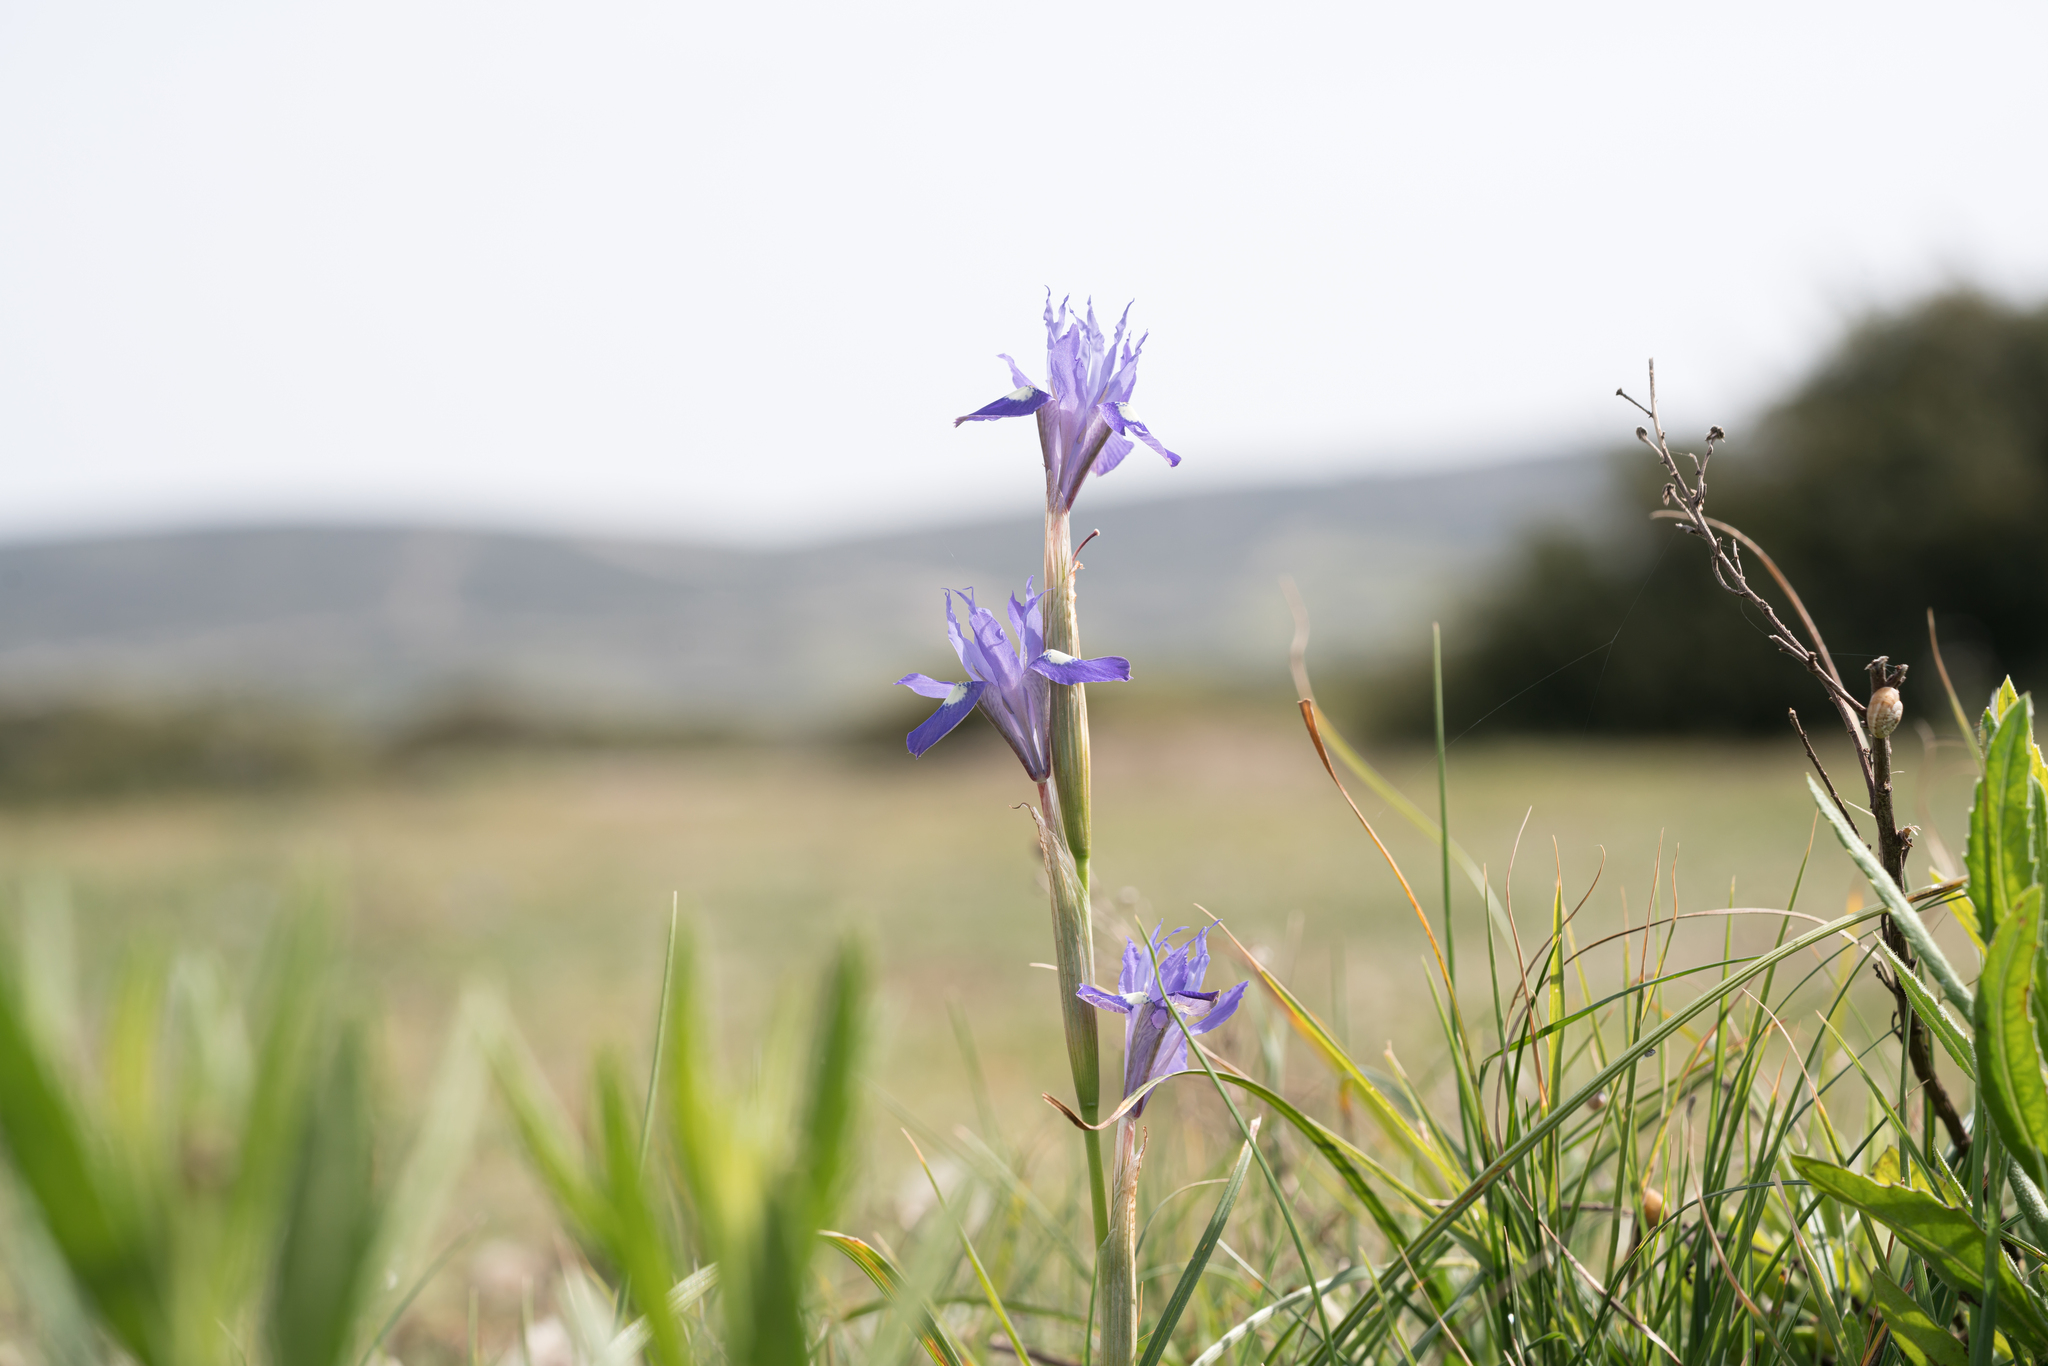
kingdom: Plantae
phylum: Tracheophyta
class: Liliopsida
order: Asparagales
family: Iridaceae
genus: Moraea
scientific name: Moraea sisyrinchium
